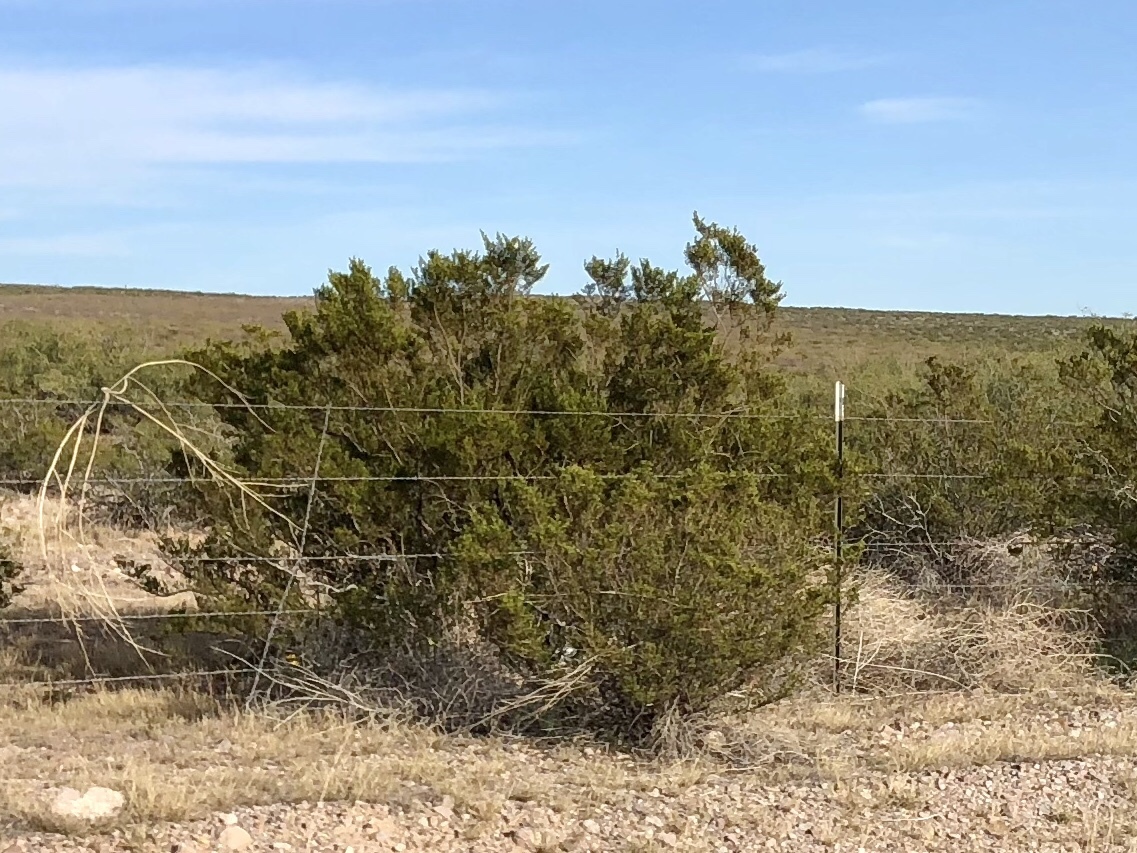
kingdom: Plantae
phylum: Tracheophyta
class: Magnoliopsida
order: Zygophyllales
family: Zygophyllaceae
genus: Larrea
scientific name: Larrea tridentata
